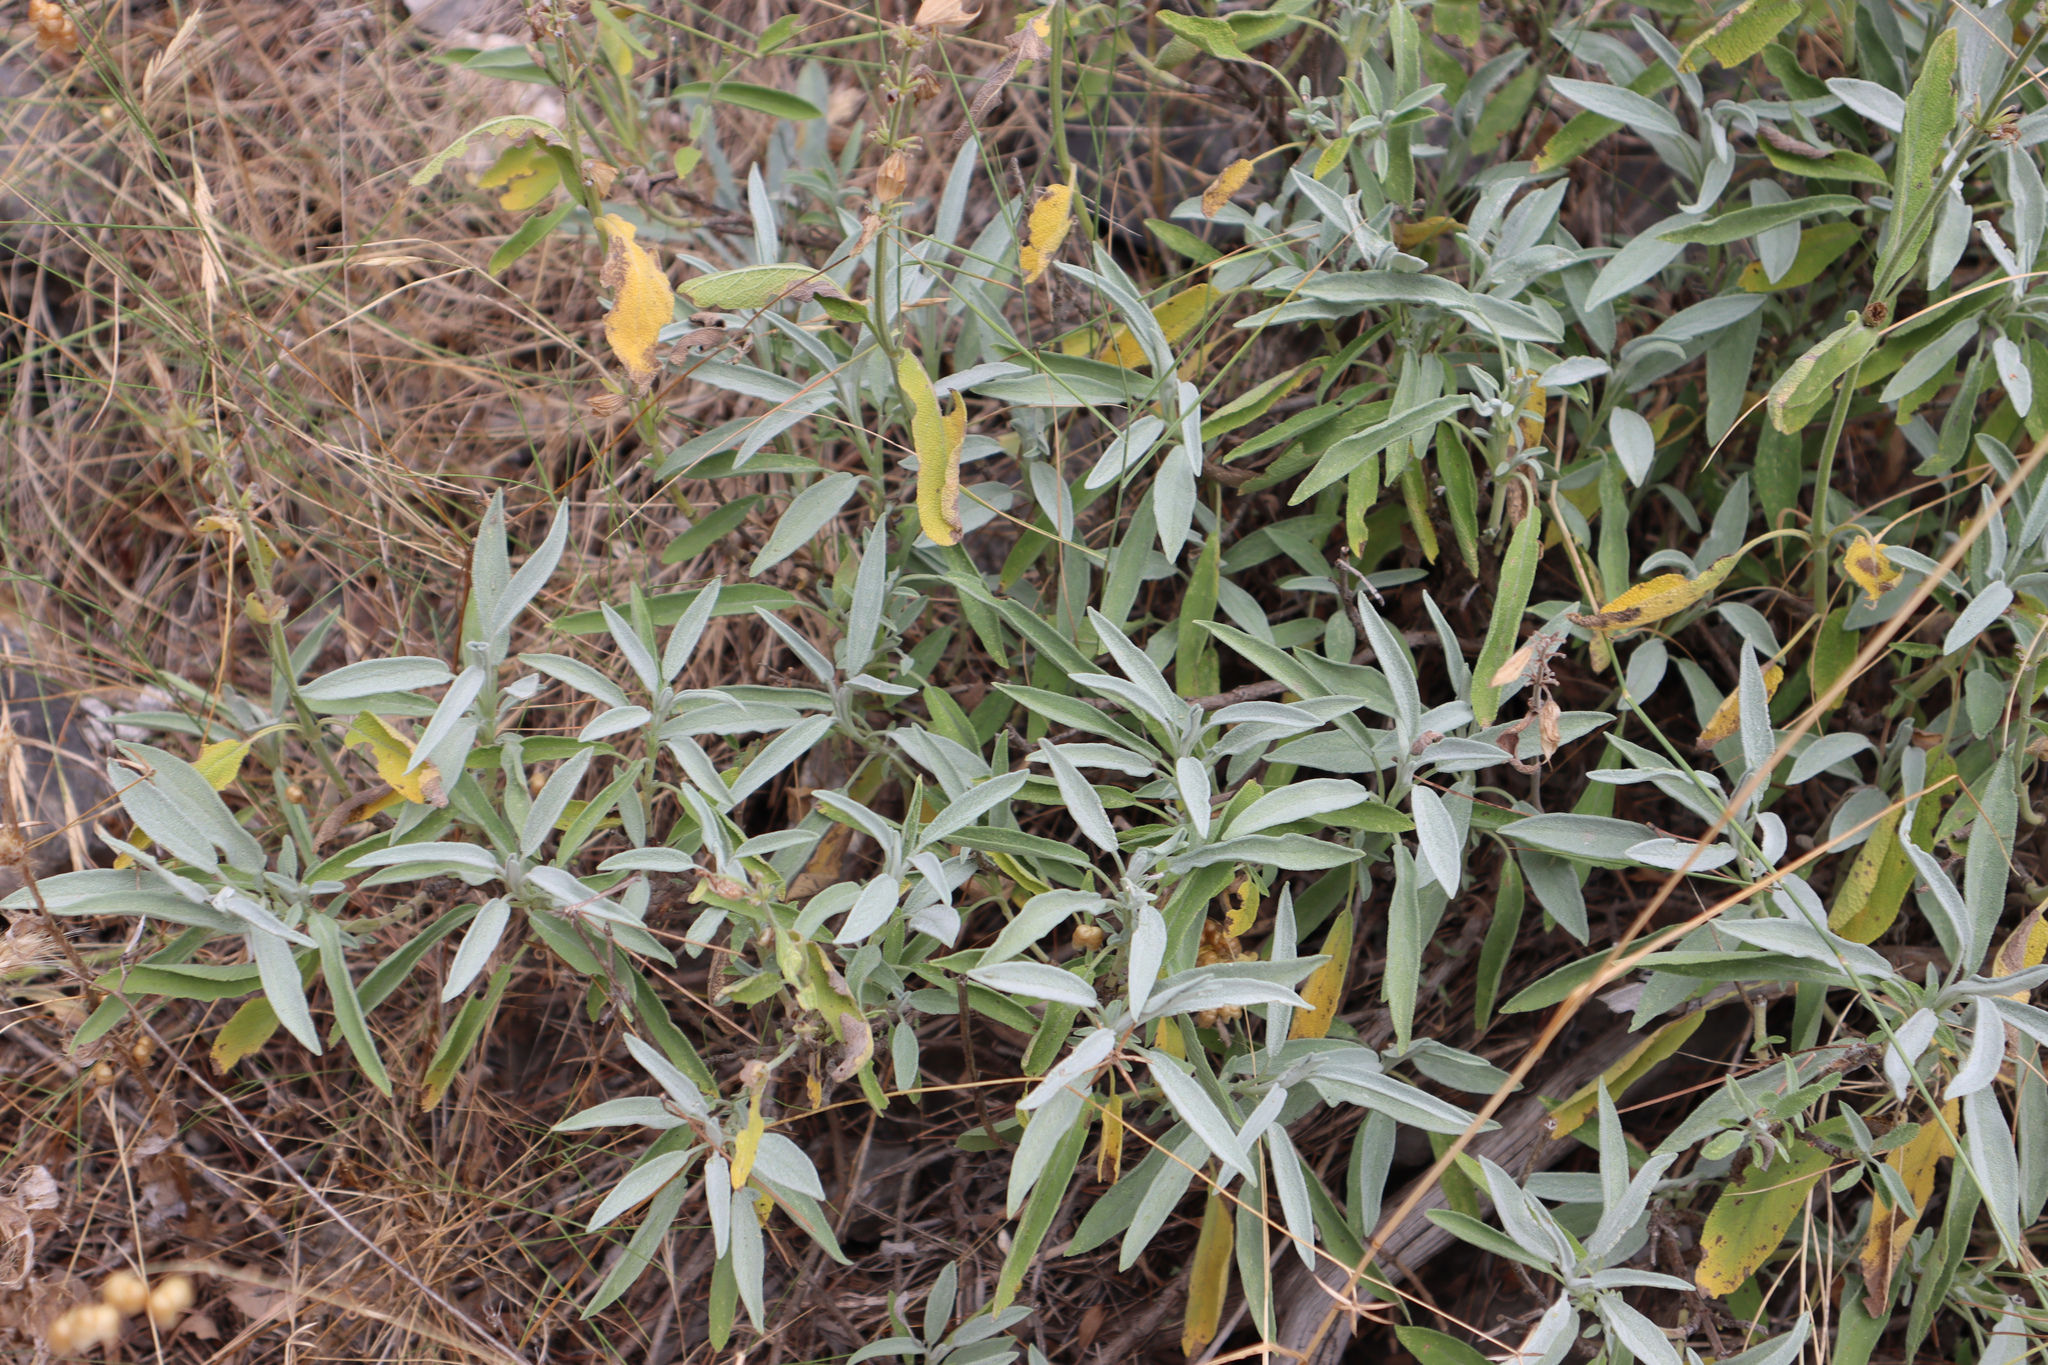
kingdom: Plantae
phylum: Tracheophyta
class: Magnoliopsida
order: Lamiales
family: Lamiaceae
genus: Salvia
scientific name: Salvia officinalis
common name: Sage
